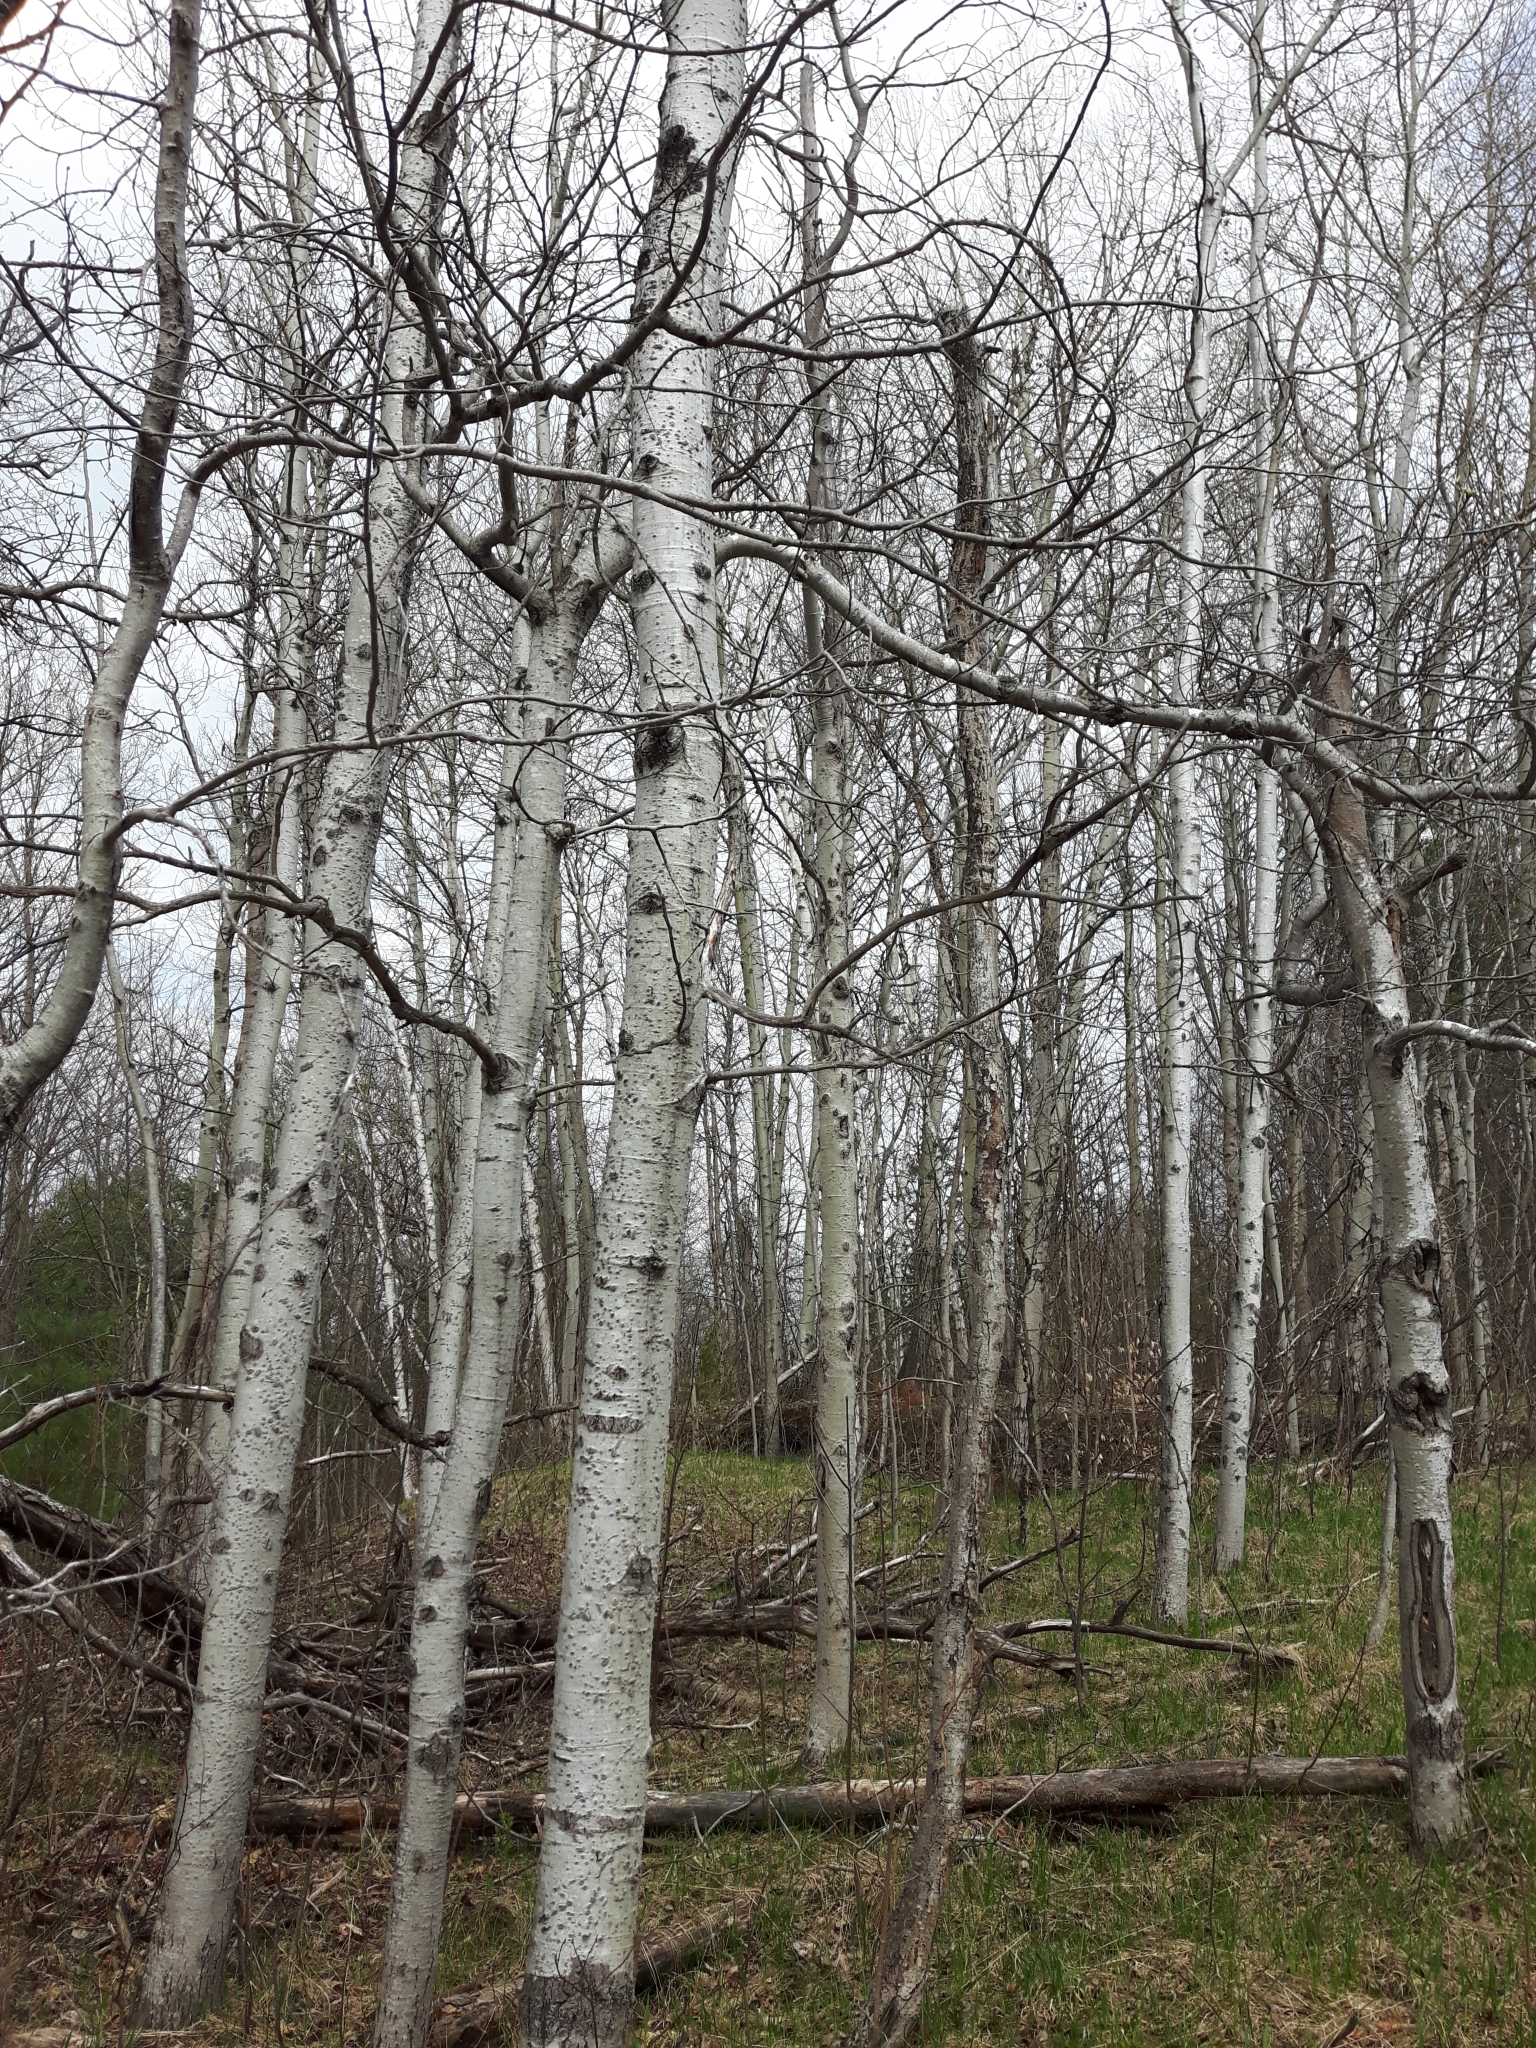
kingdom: Plantae
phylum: Tracheophyta
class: Magnoliopsida
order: Malpighiales
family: Salicaceae
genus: Populus
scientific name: Populus tremuloides
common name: Quaking aspen
